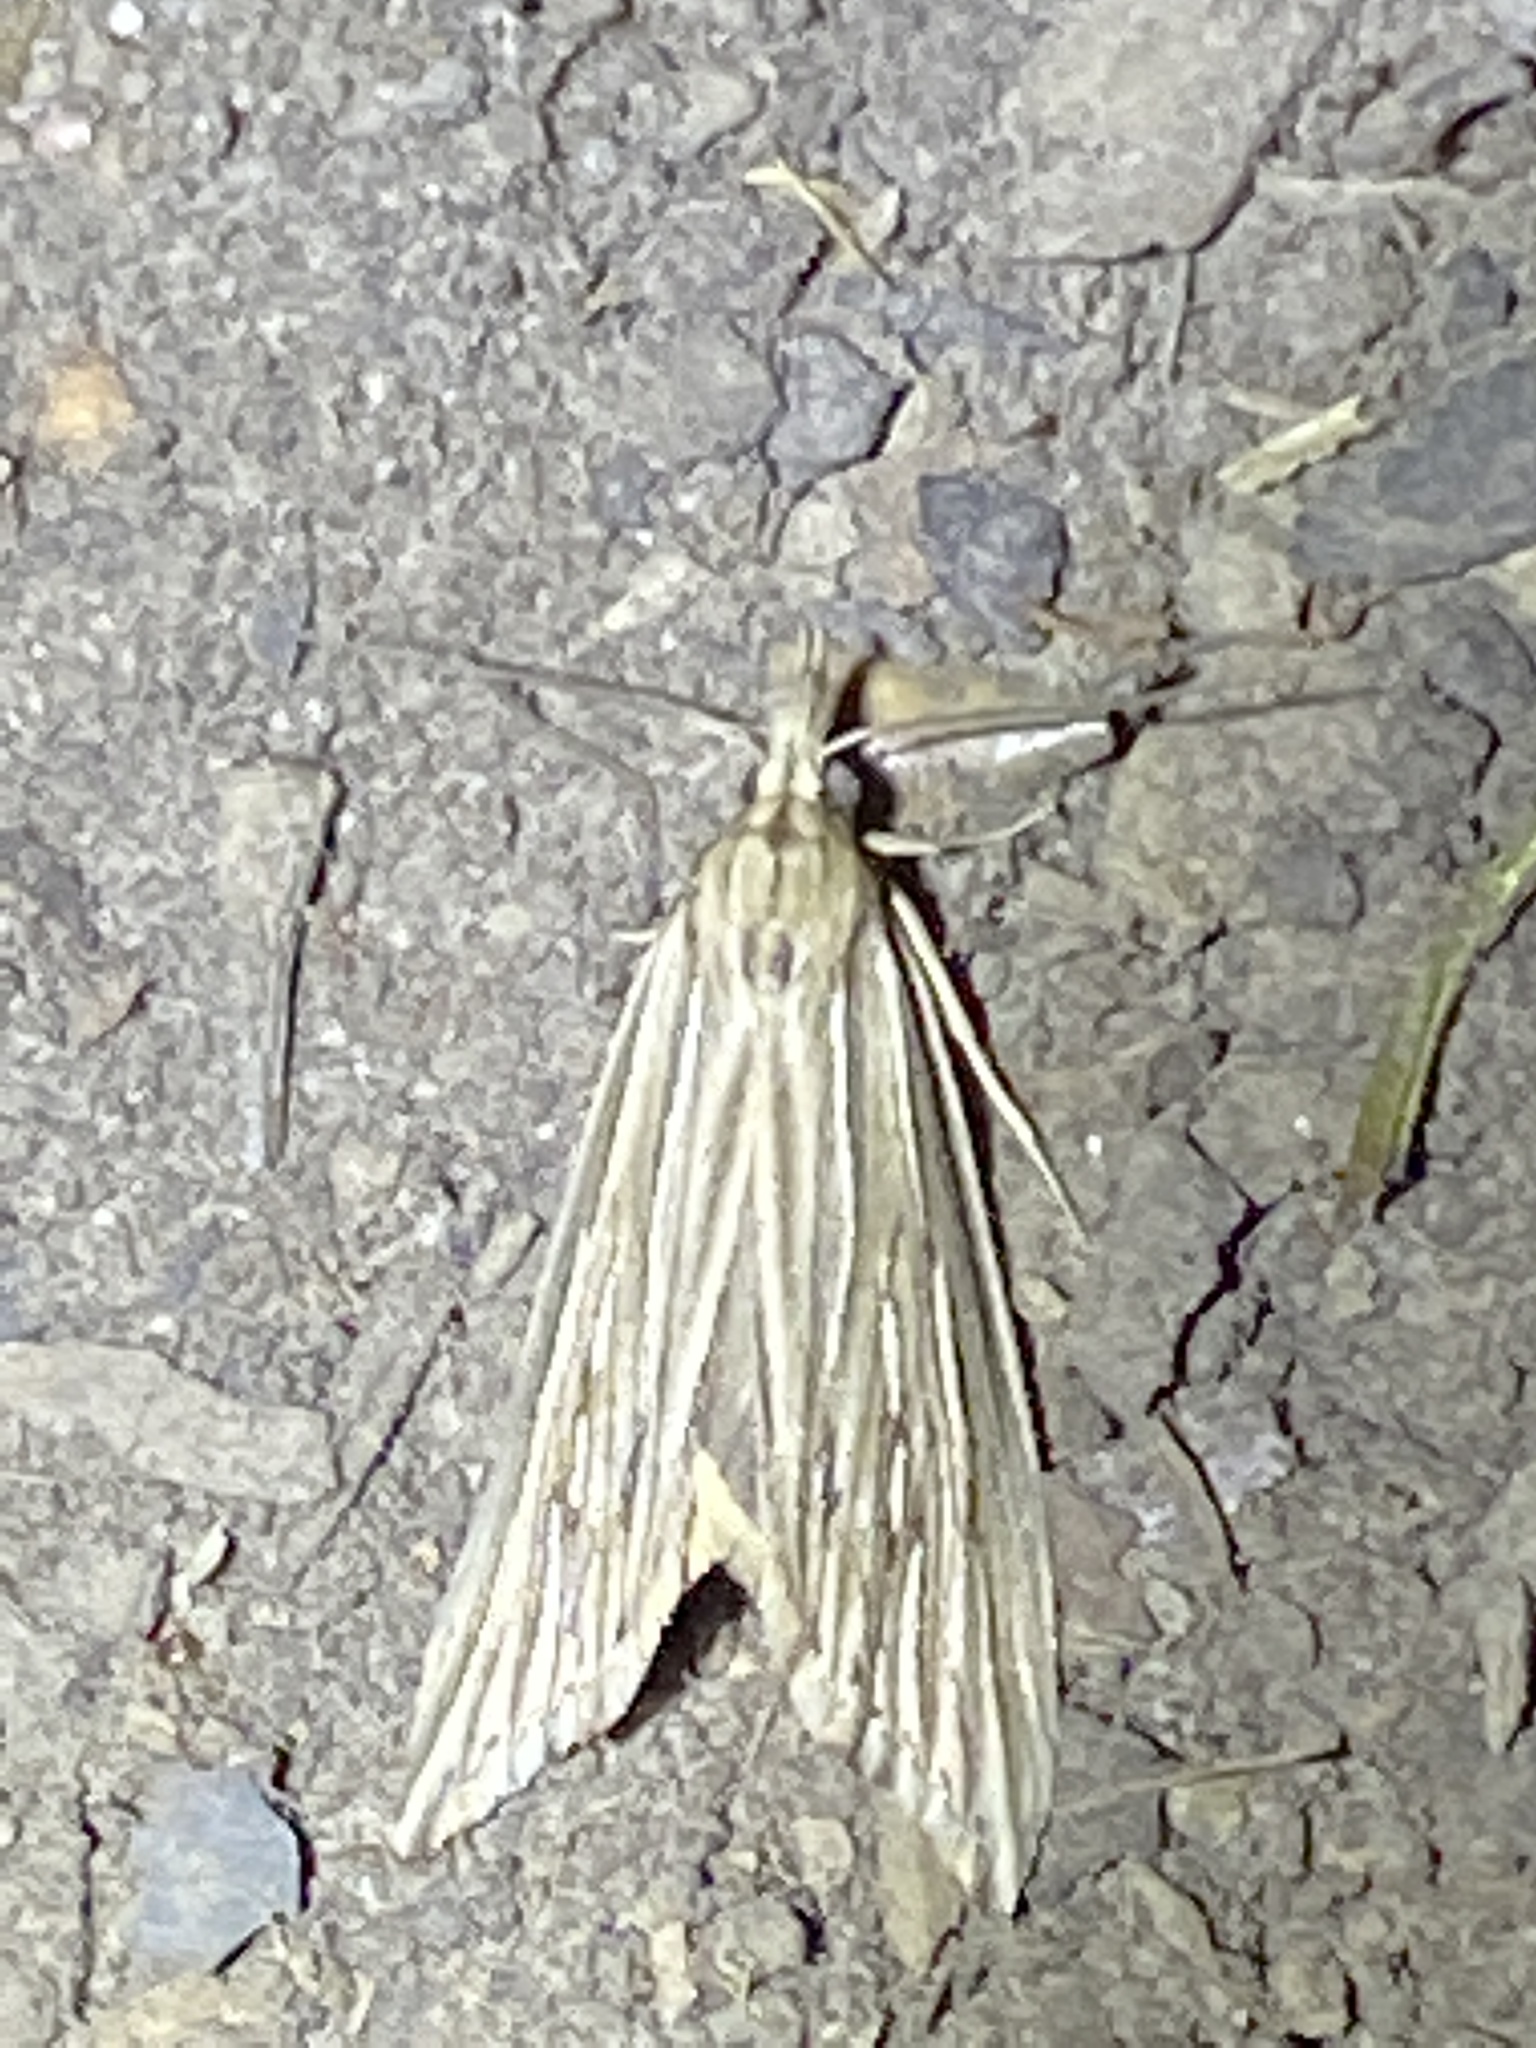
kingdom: Animalia
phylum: Arthropoda
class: Insecta
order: Lepidoptera
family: Erebidae
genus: Meyrickella
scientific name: Meyrickella ruptellus
